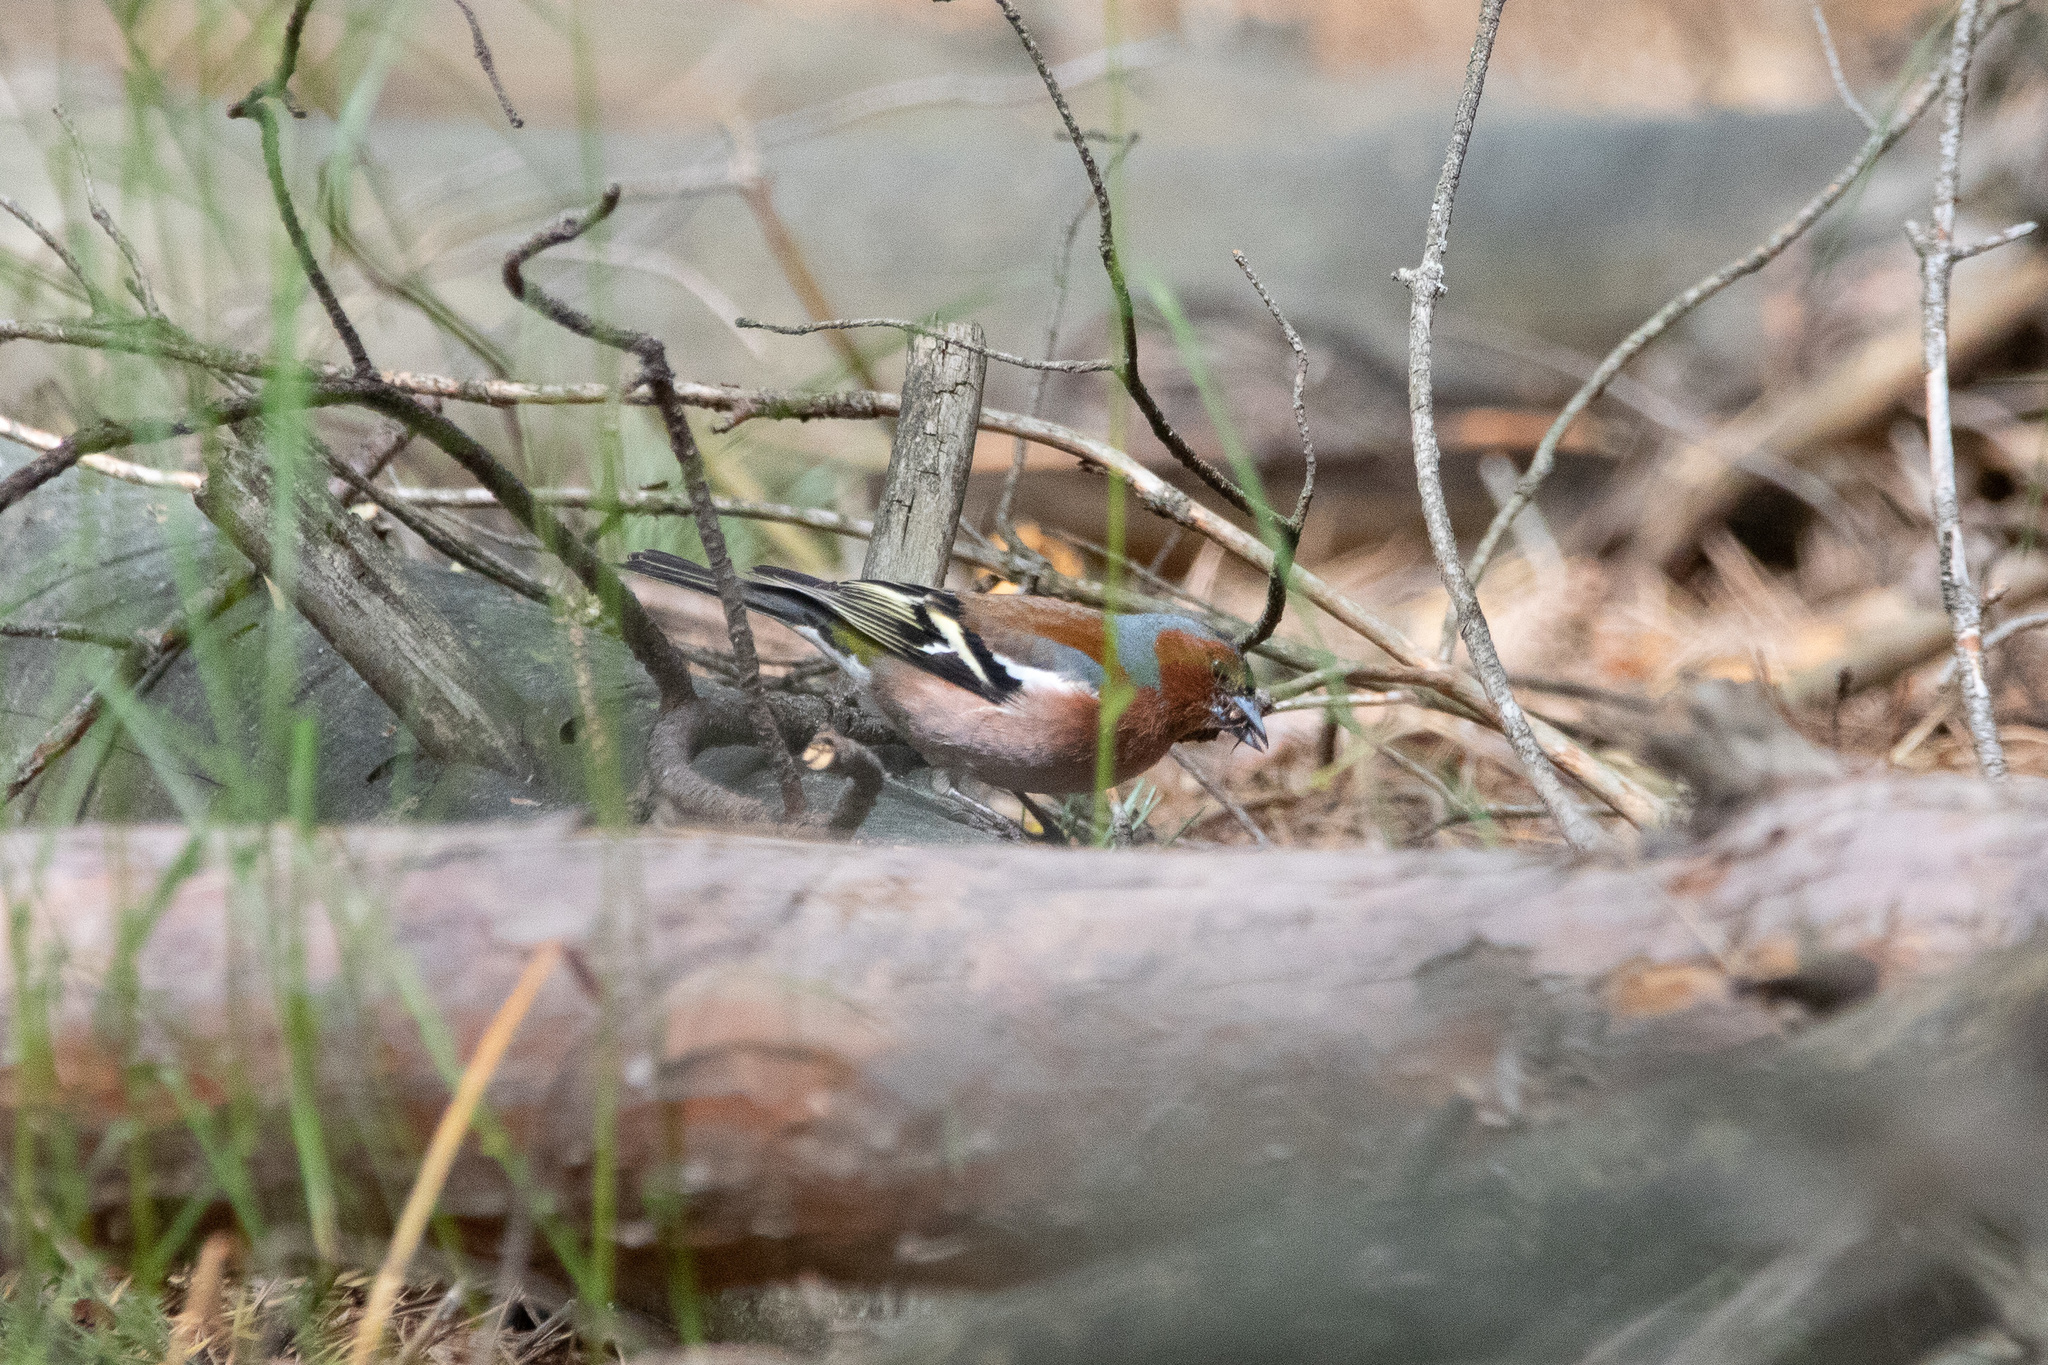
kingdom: Animalia
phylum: Chordata
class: Aves
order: Passeriformes
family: Fringillidae
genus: Fringilla
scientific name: Fringilla coelebs
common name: Common chaffinch
